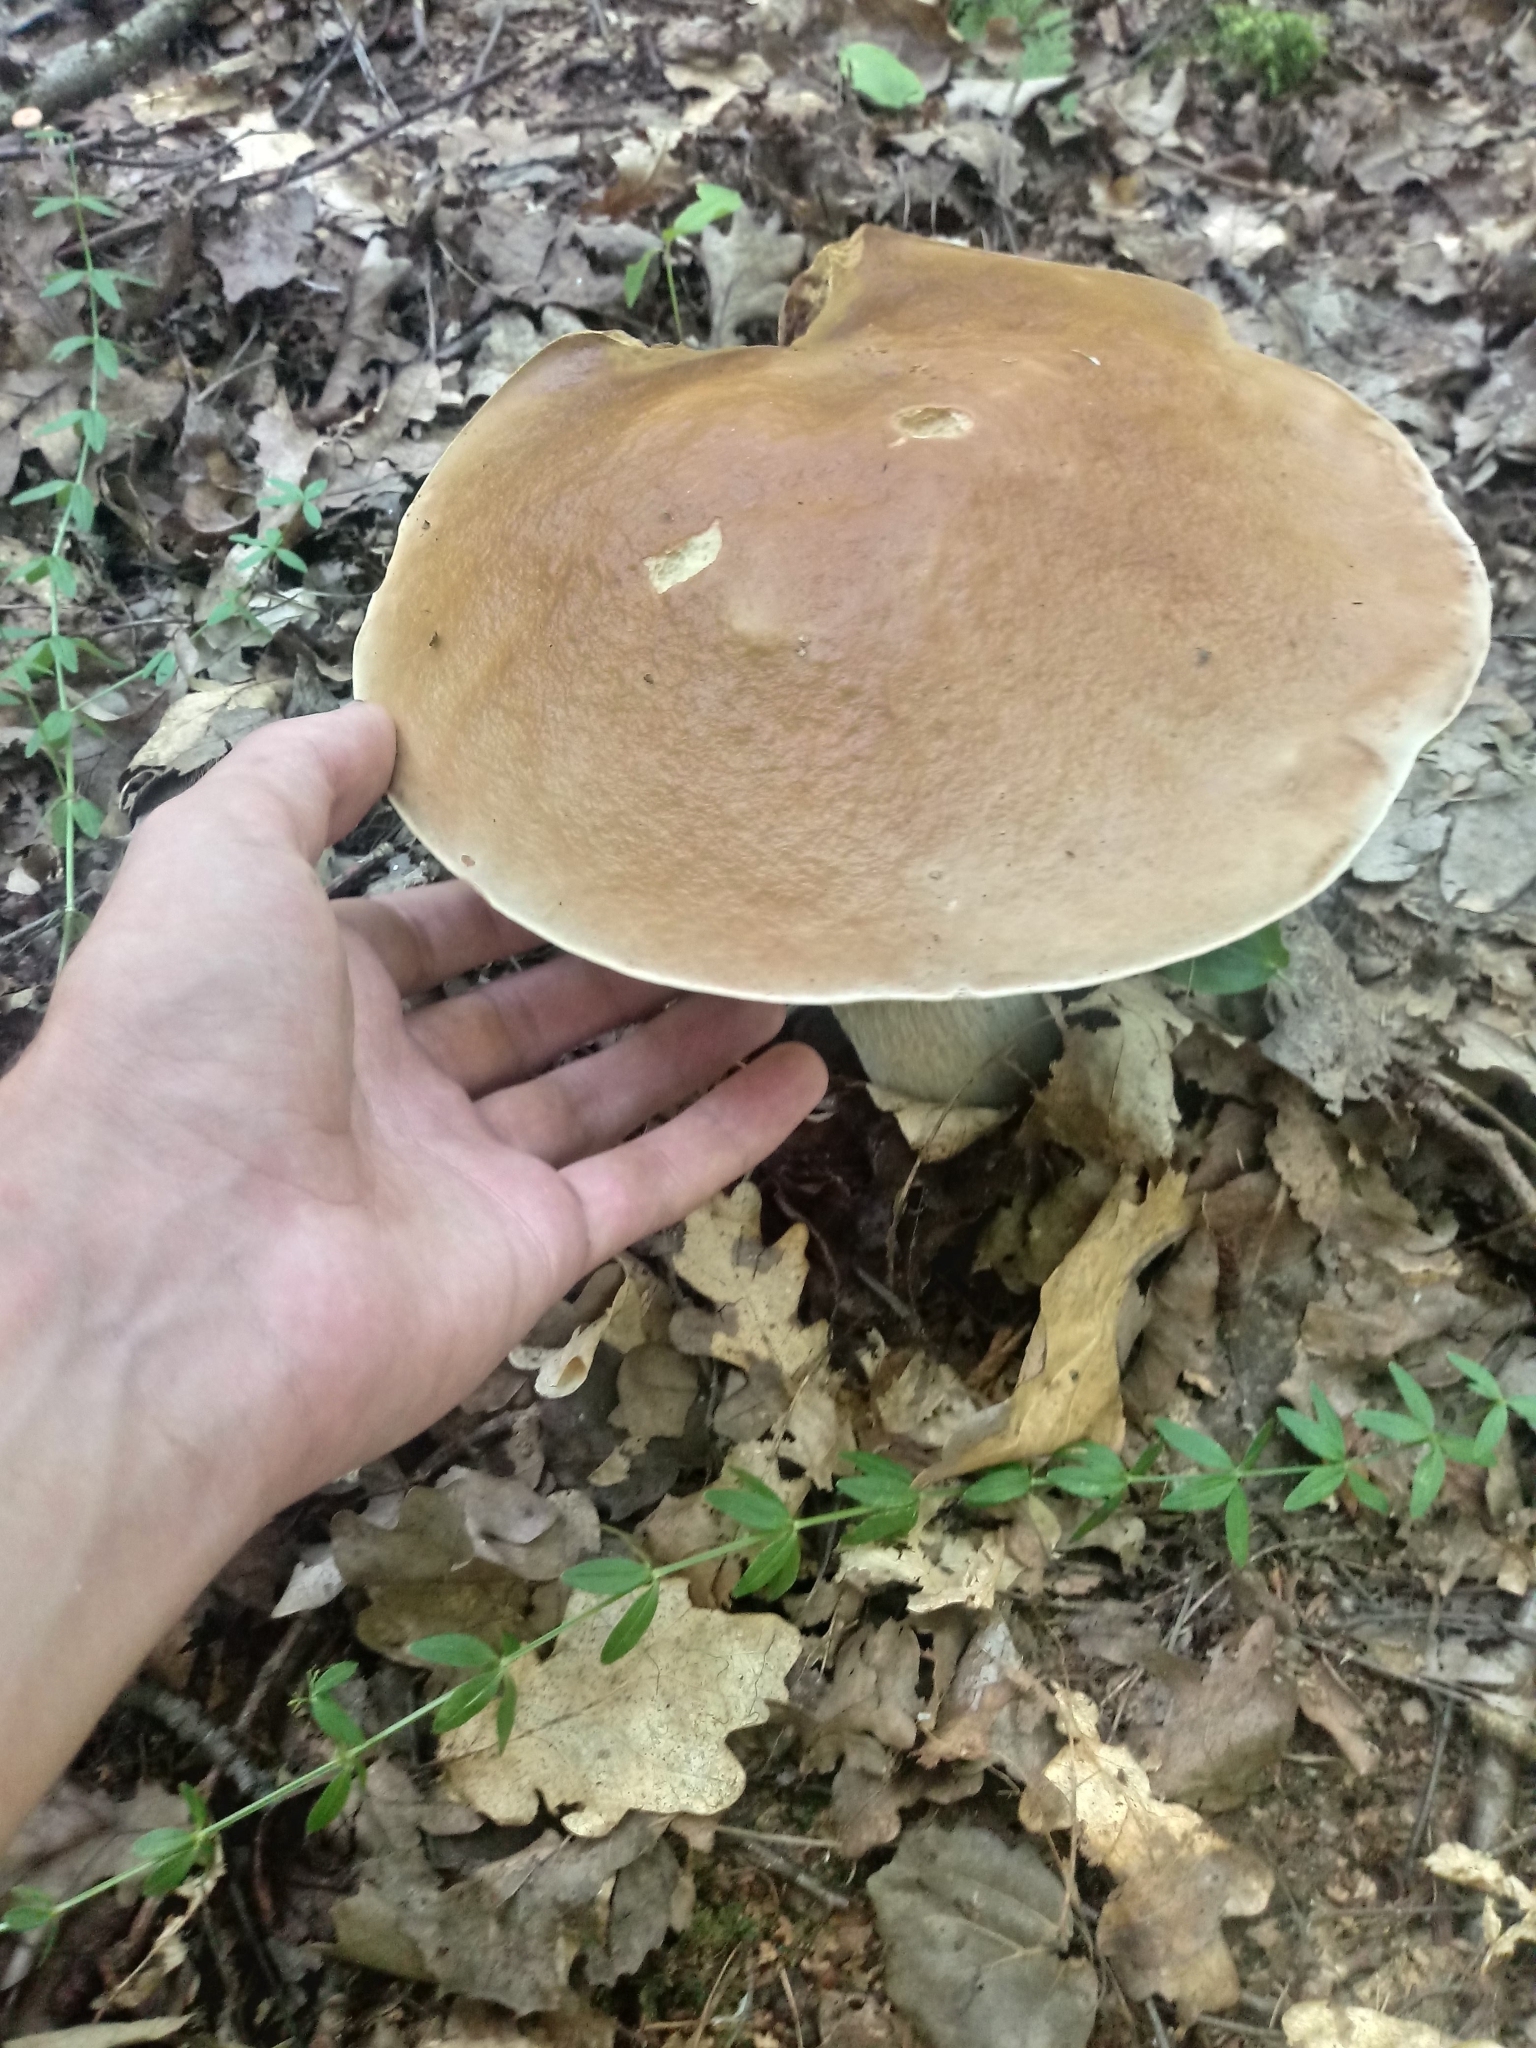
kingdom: Fungi
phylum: Basidiomycota
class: Agaricomycetes
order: Boletales
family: Boletaceae
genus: Boletus
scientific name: Boletus edulis
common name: Cep
